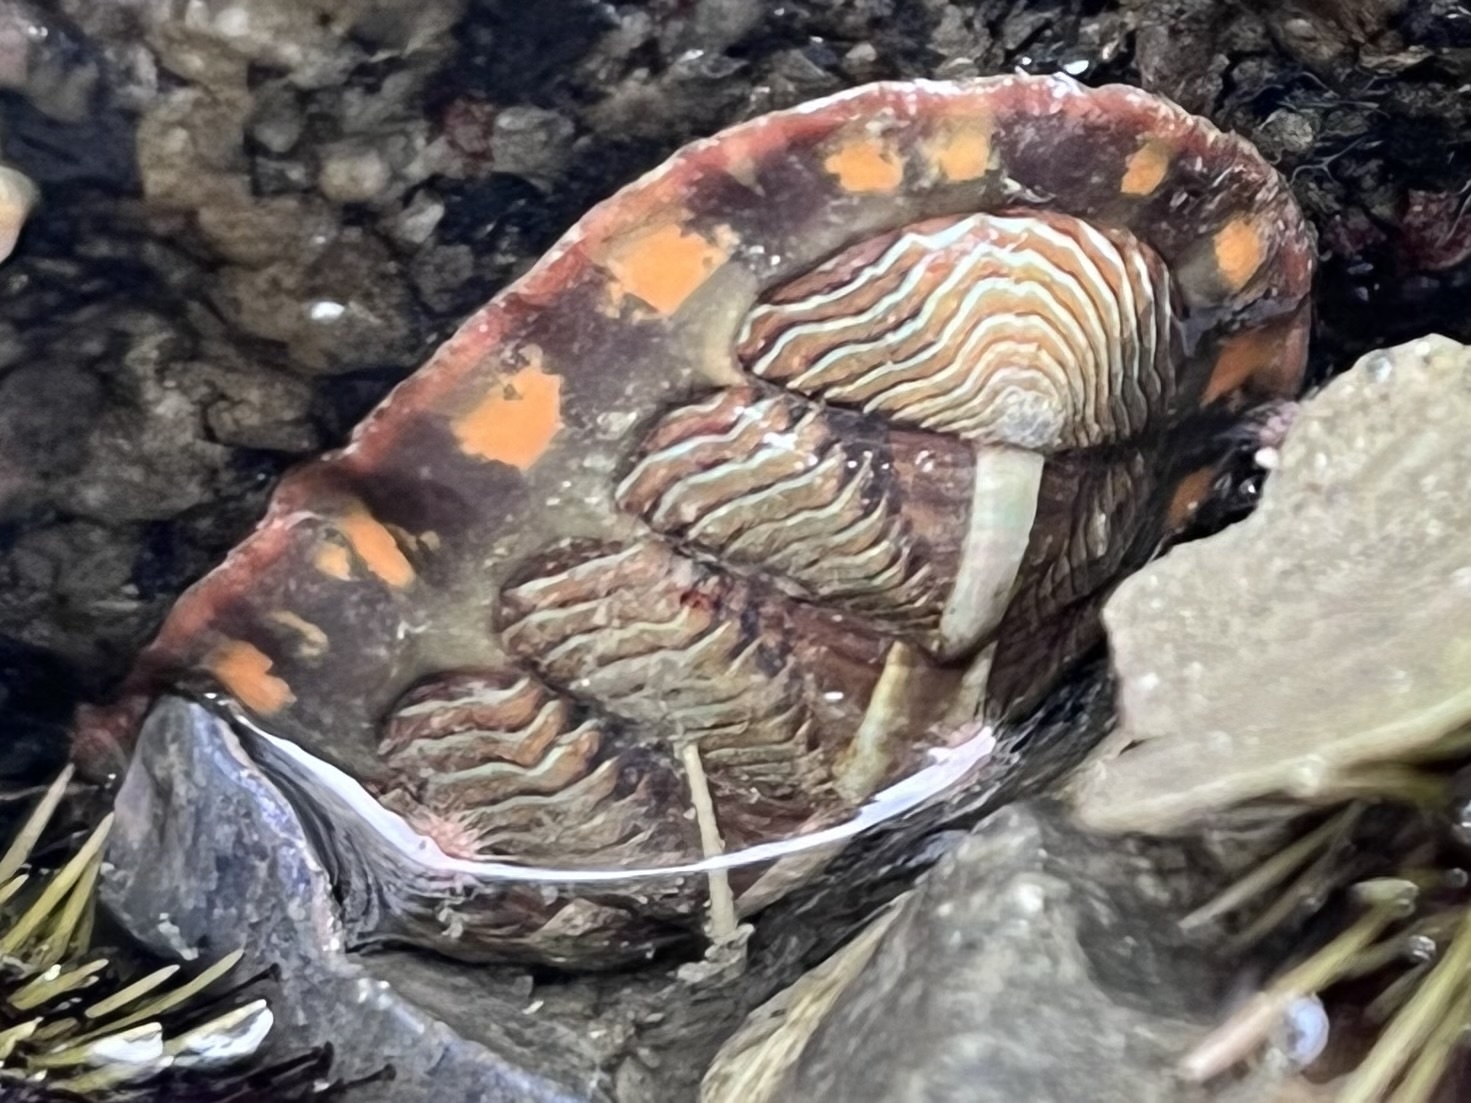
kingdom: Animalia
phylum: Mollusca
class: Polyplacophora
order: Chitonida
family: Tonicellidae
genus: Tonicella
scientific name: Tonicella lineata
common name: Lined chiton
